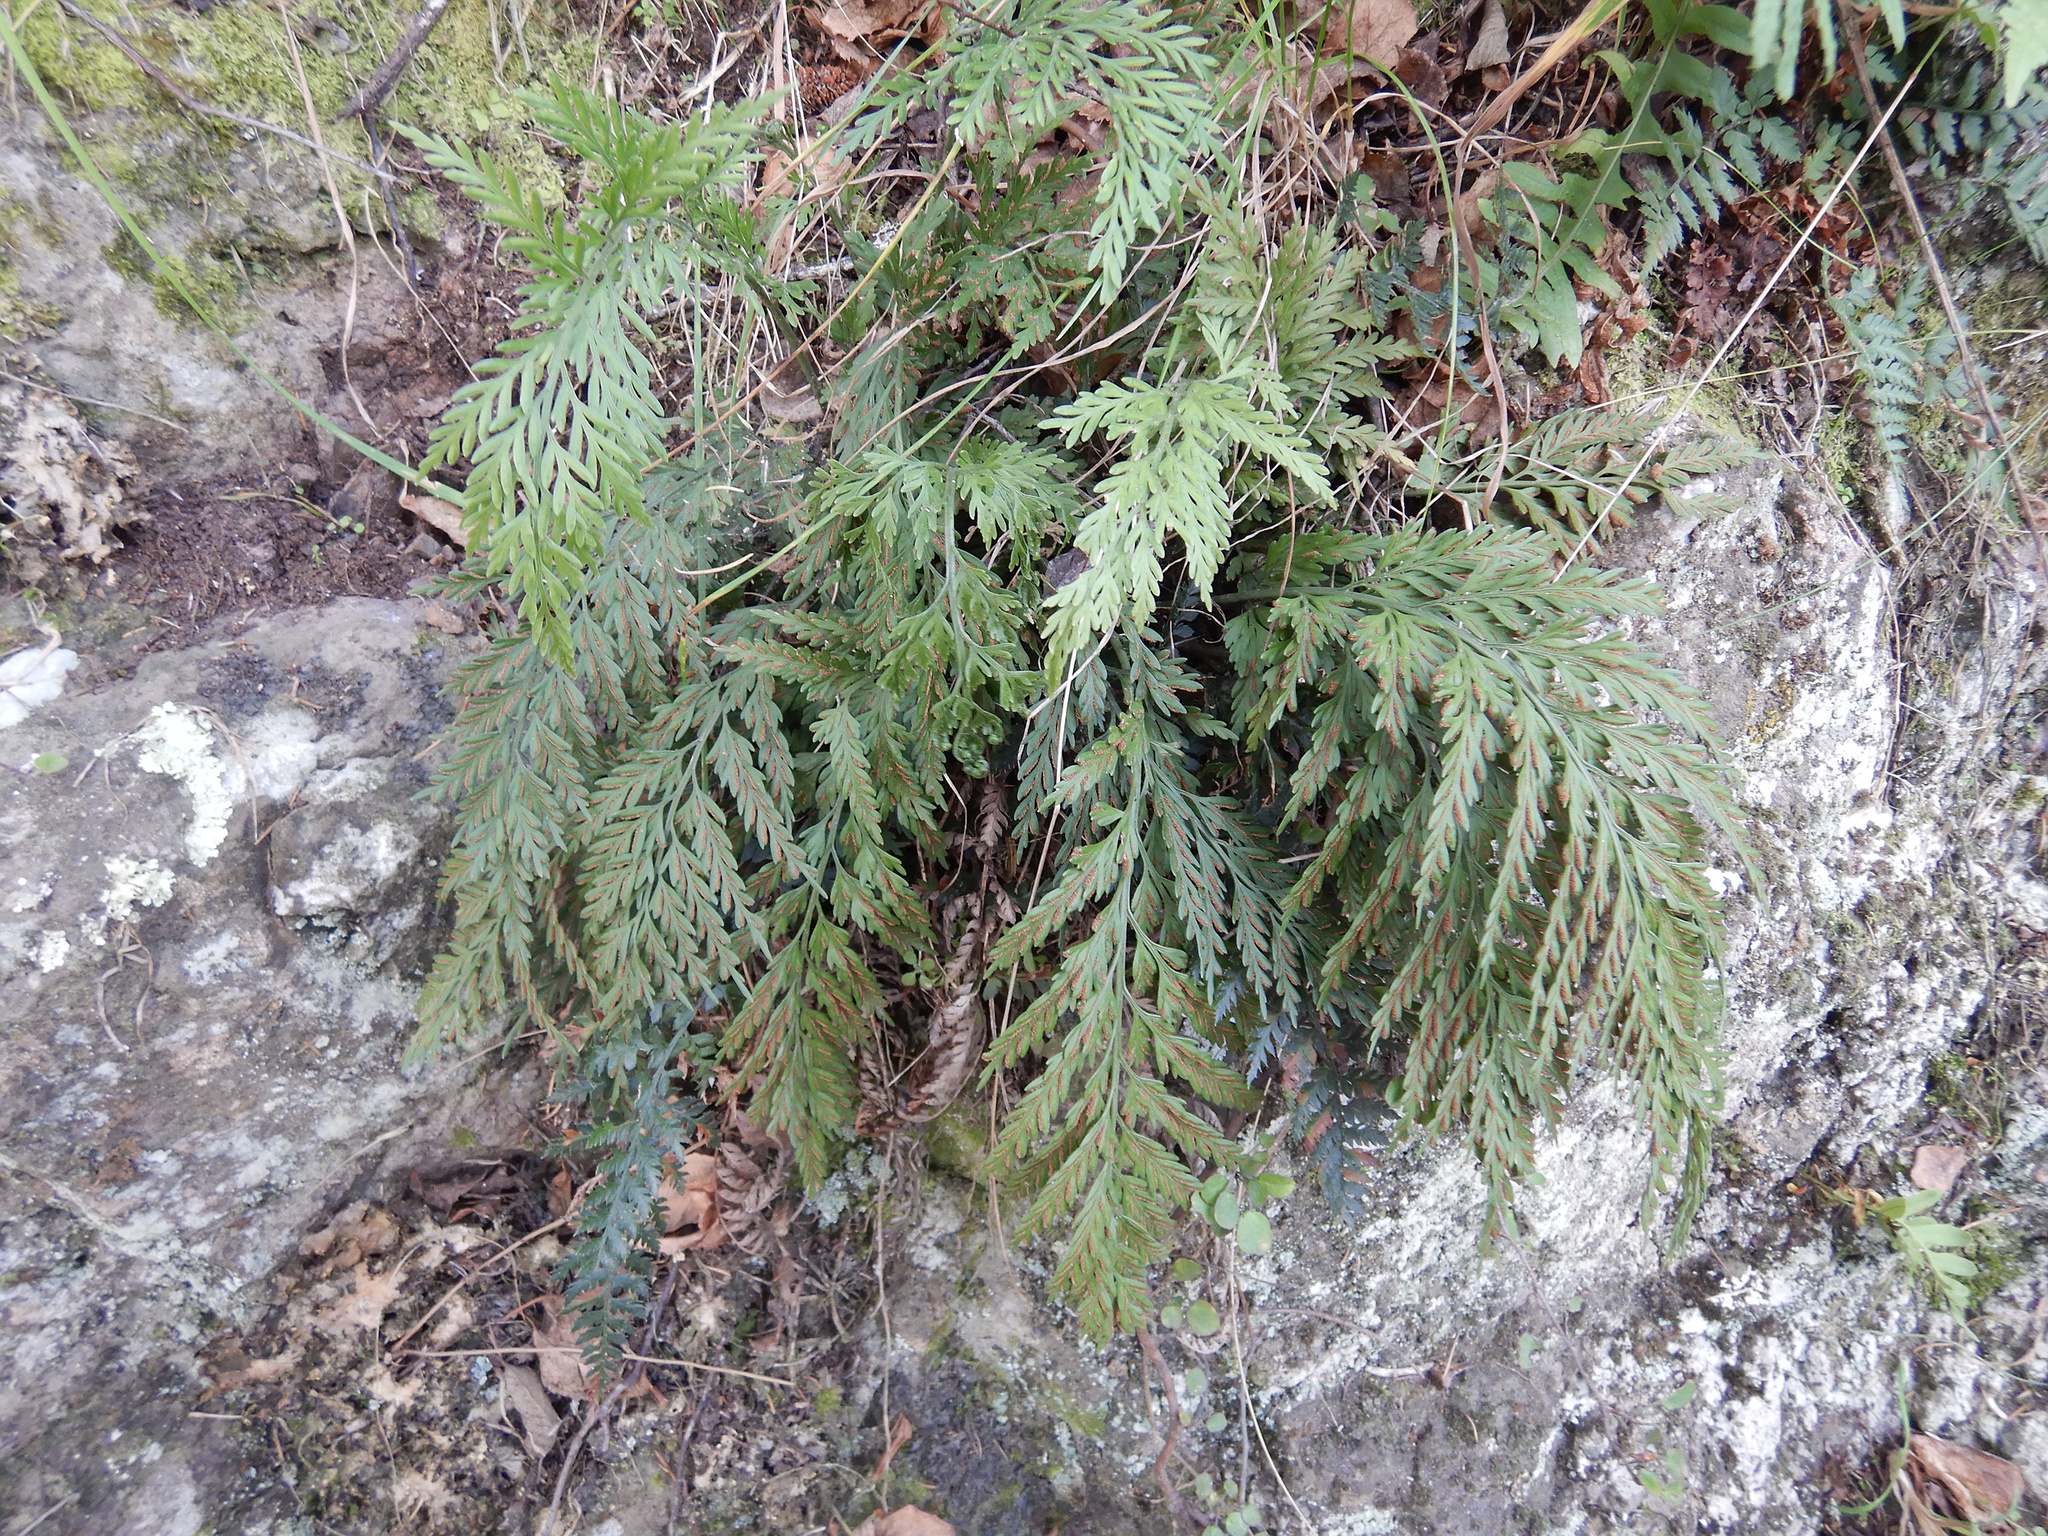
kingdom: Plantae
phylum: Tracheophyta
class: Polypodiopsida
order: Polypodiales
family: Aspleniaceae
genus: Asplenium
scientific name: Asplenium appendiculatum
